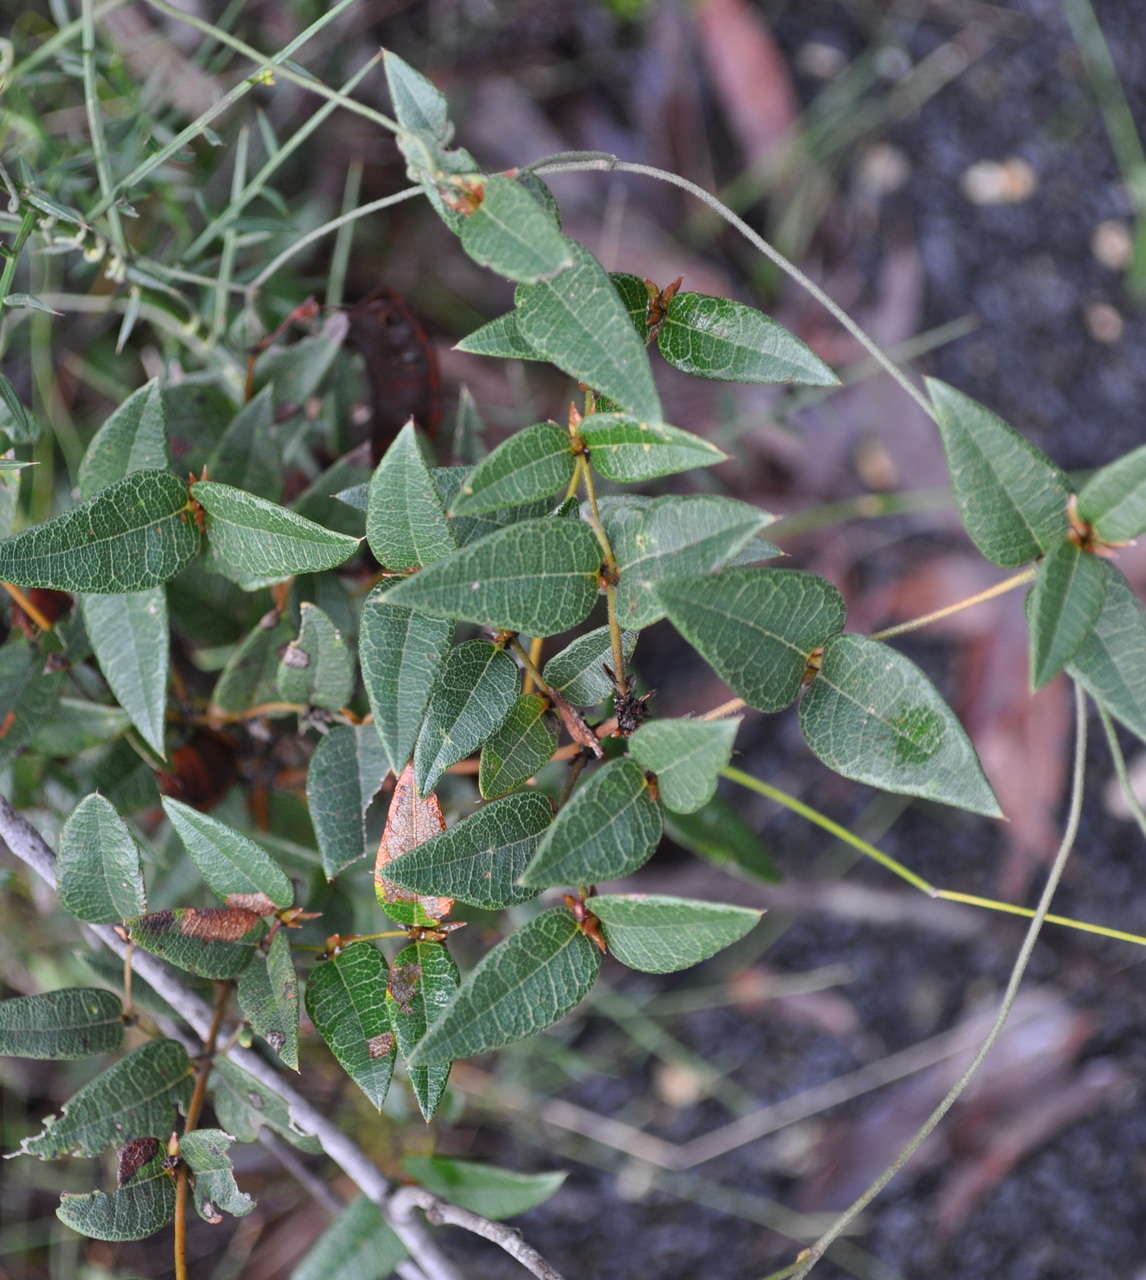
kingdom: Plantae
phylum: Tracheophyta
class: Magnoliopsida
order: Fabales
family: Fabaceae
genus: Platylobium
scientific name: Platylobium formosum
